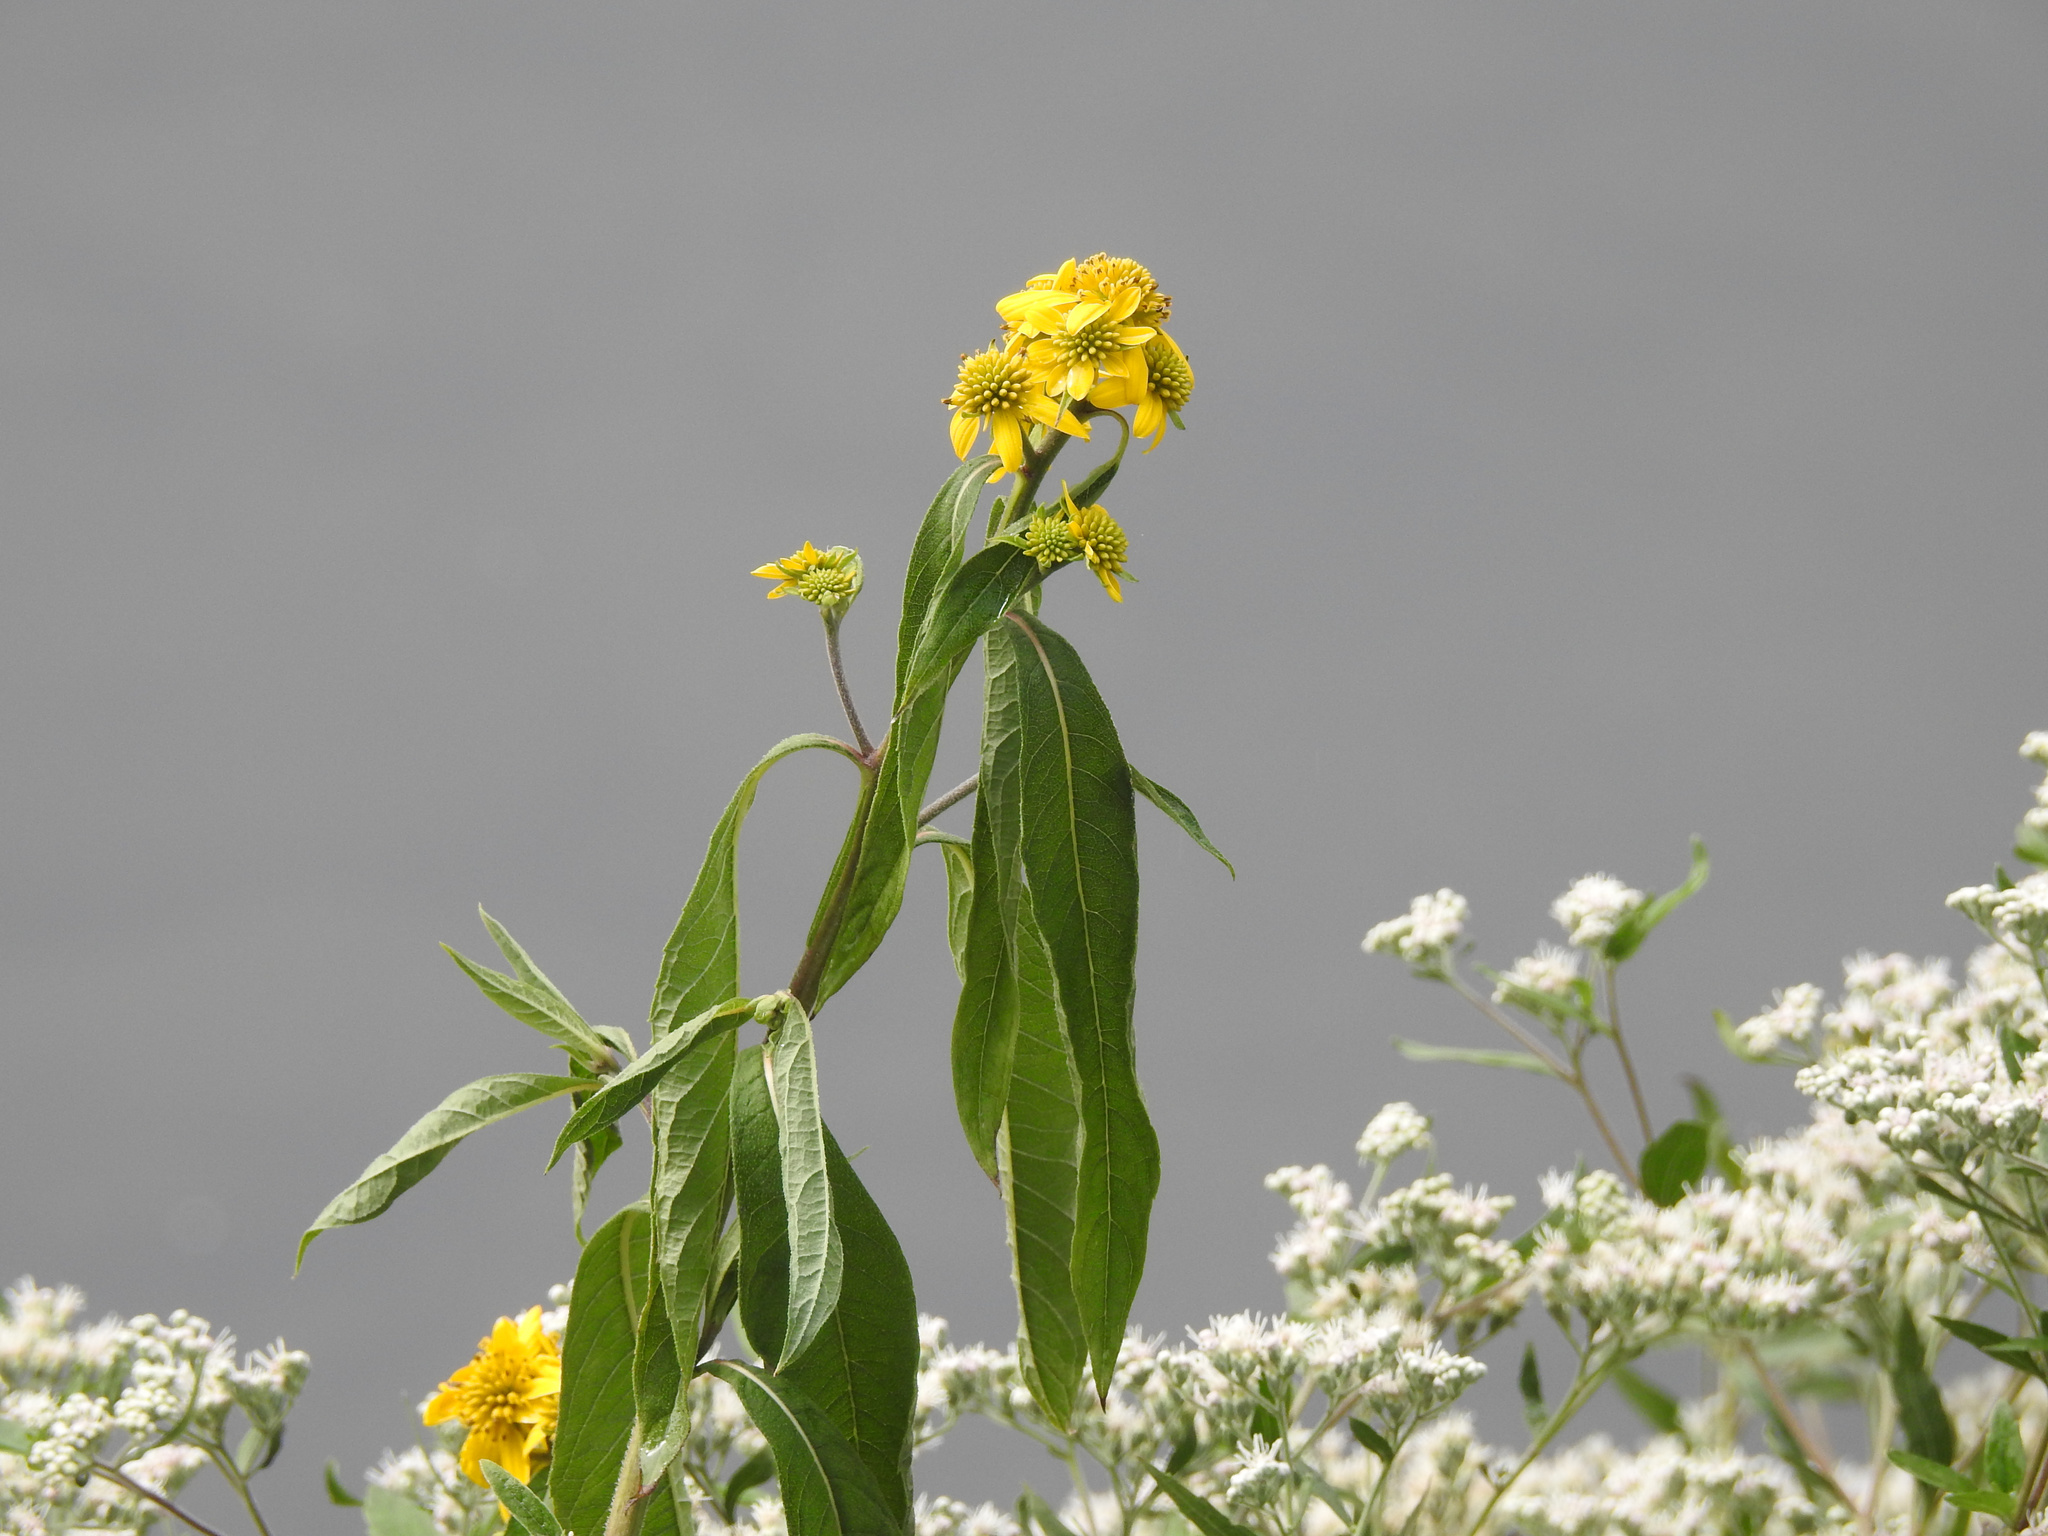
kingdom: Plantae
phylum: Tracheophyta
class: Magnoliopsida
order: Asterales
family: Asteraceae
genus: Verbesina
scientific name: Verbesina alternifolia
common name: Wingstem
